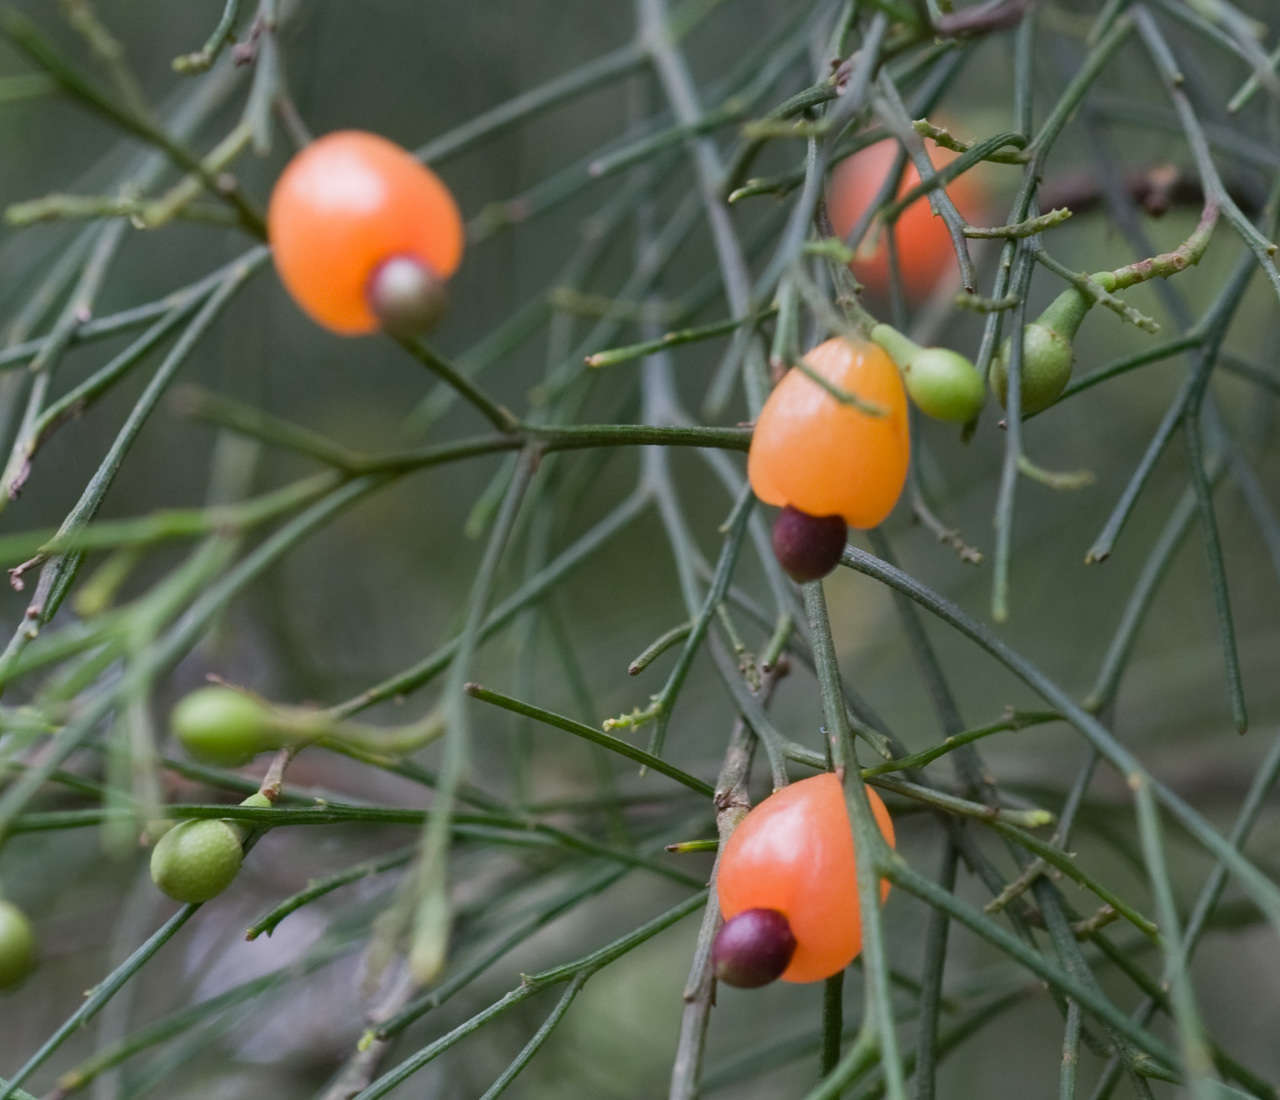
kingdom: Plantae
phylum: Tracheophyta
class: Magnoliopsida
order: Santalales
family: Santalaceae
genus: Exocarpos
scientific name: Exocarpos cupressiformis
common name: Cherry ballart
